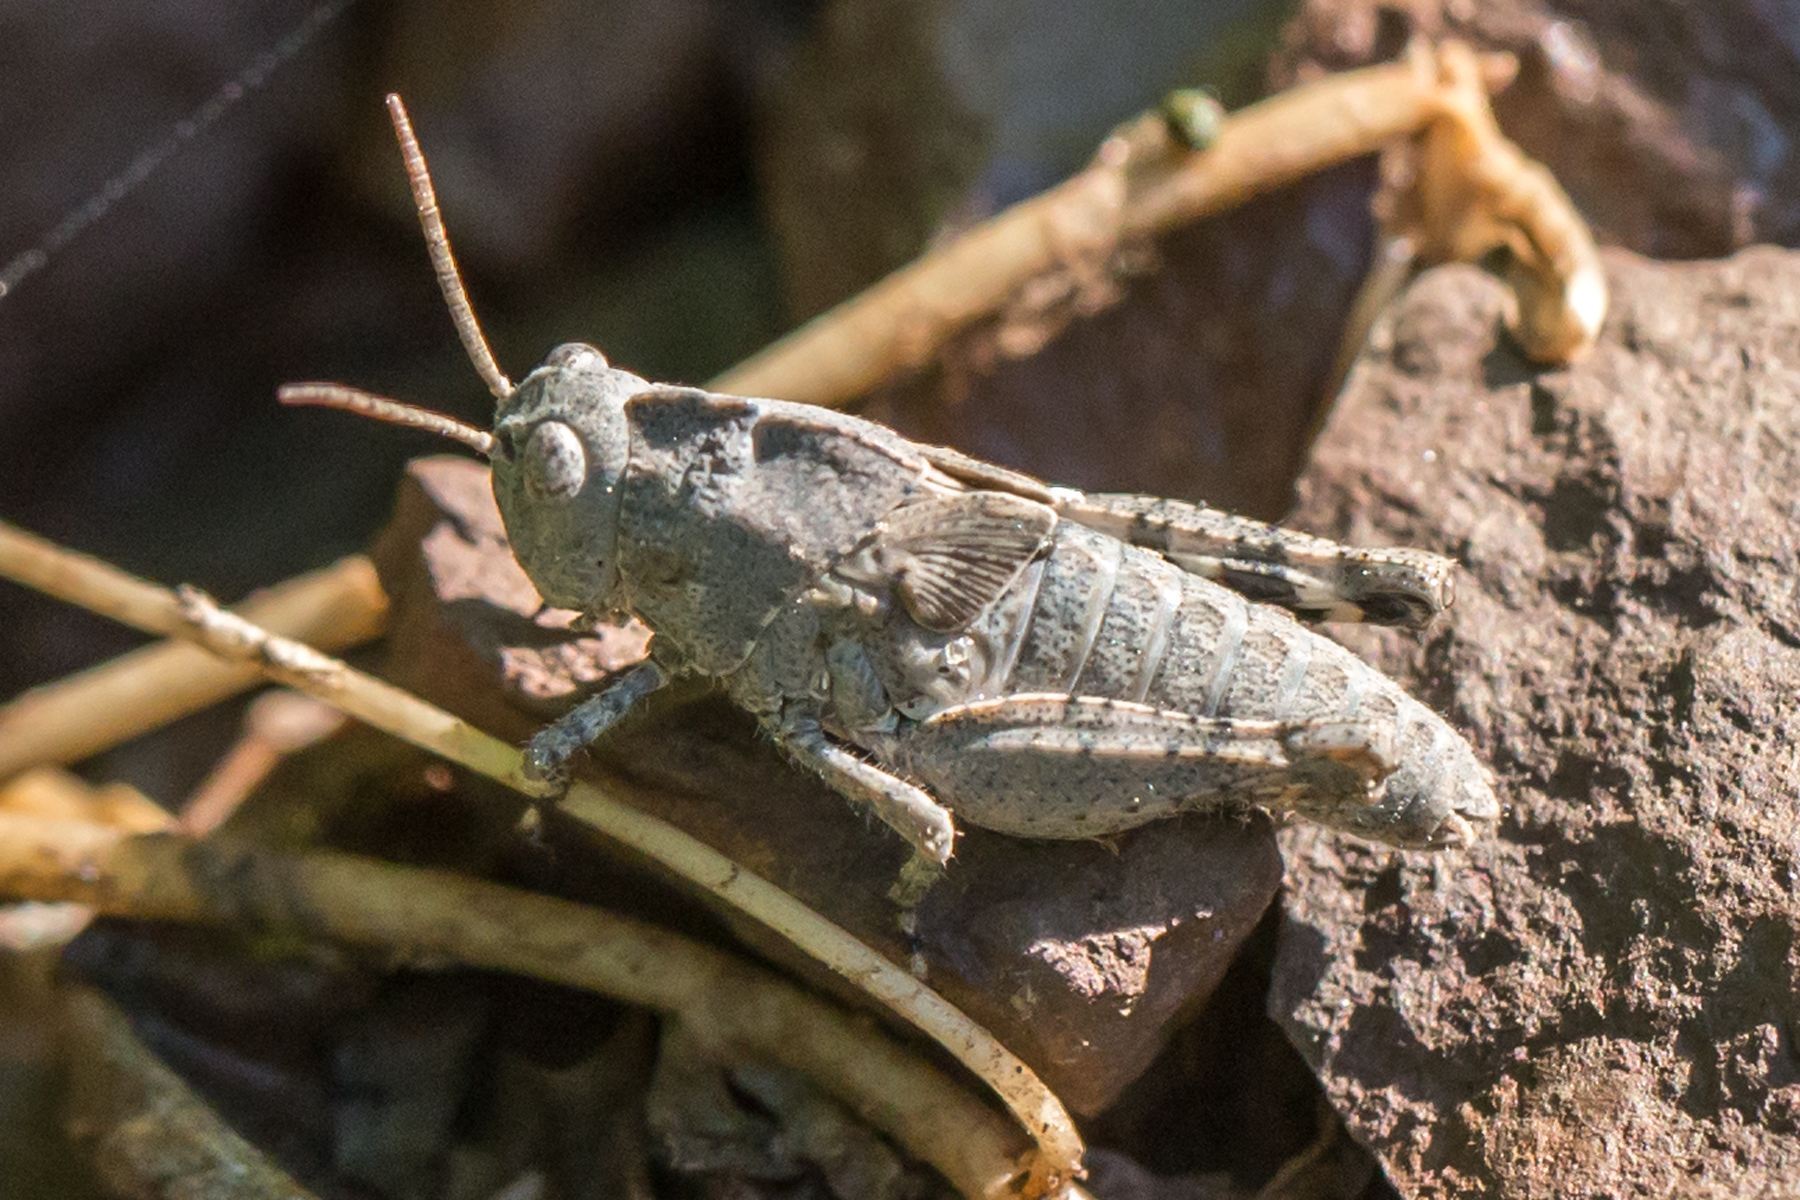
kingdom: Animalia
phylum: Arthropoda
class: Insecta
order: Orthoptera
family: Acrididae
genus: Dissosteira
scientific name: Dissosteira carolina
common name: Carolina grasshopper
